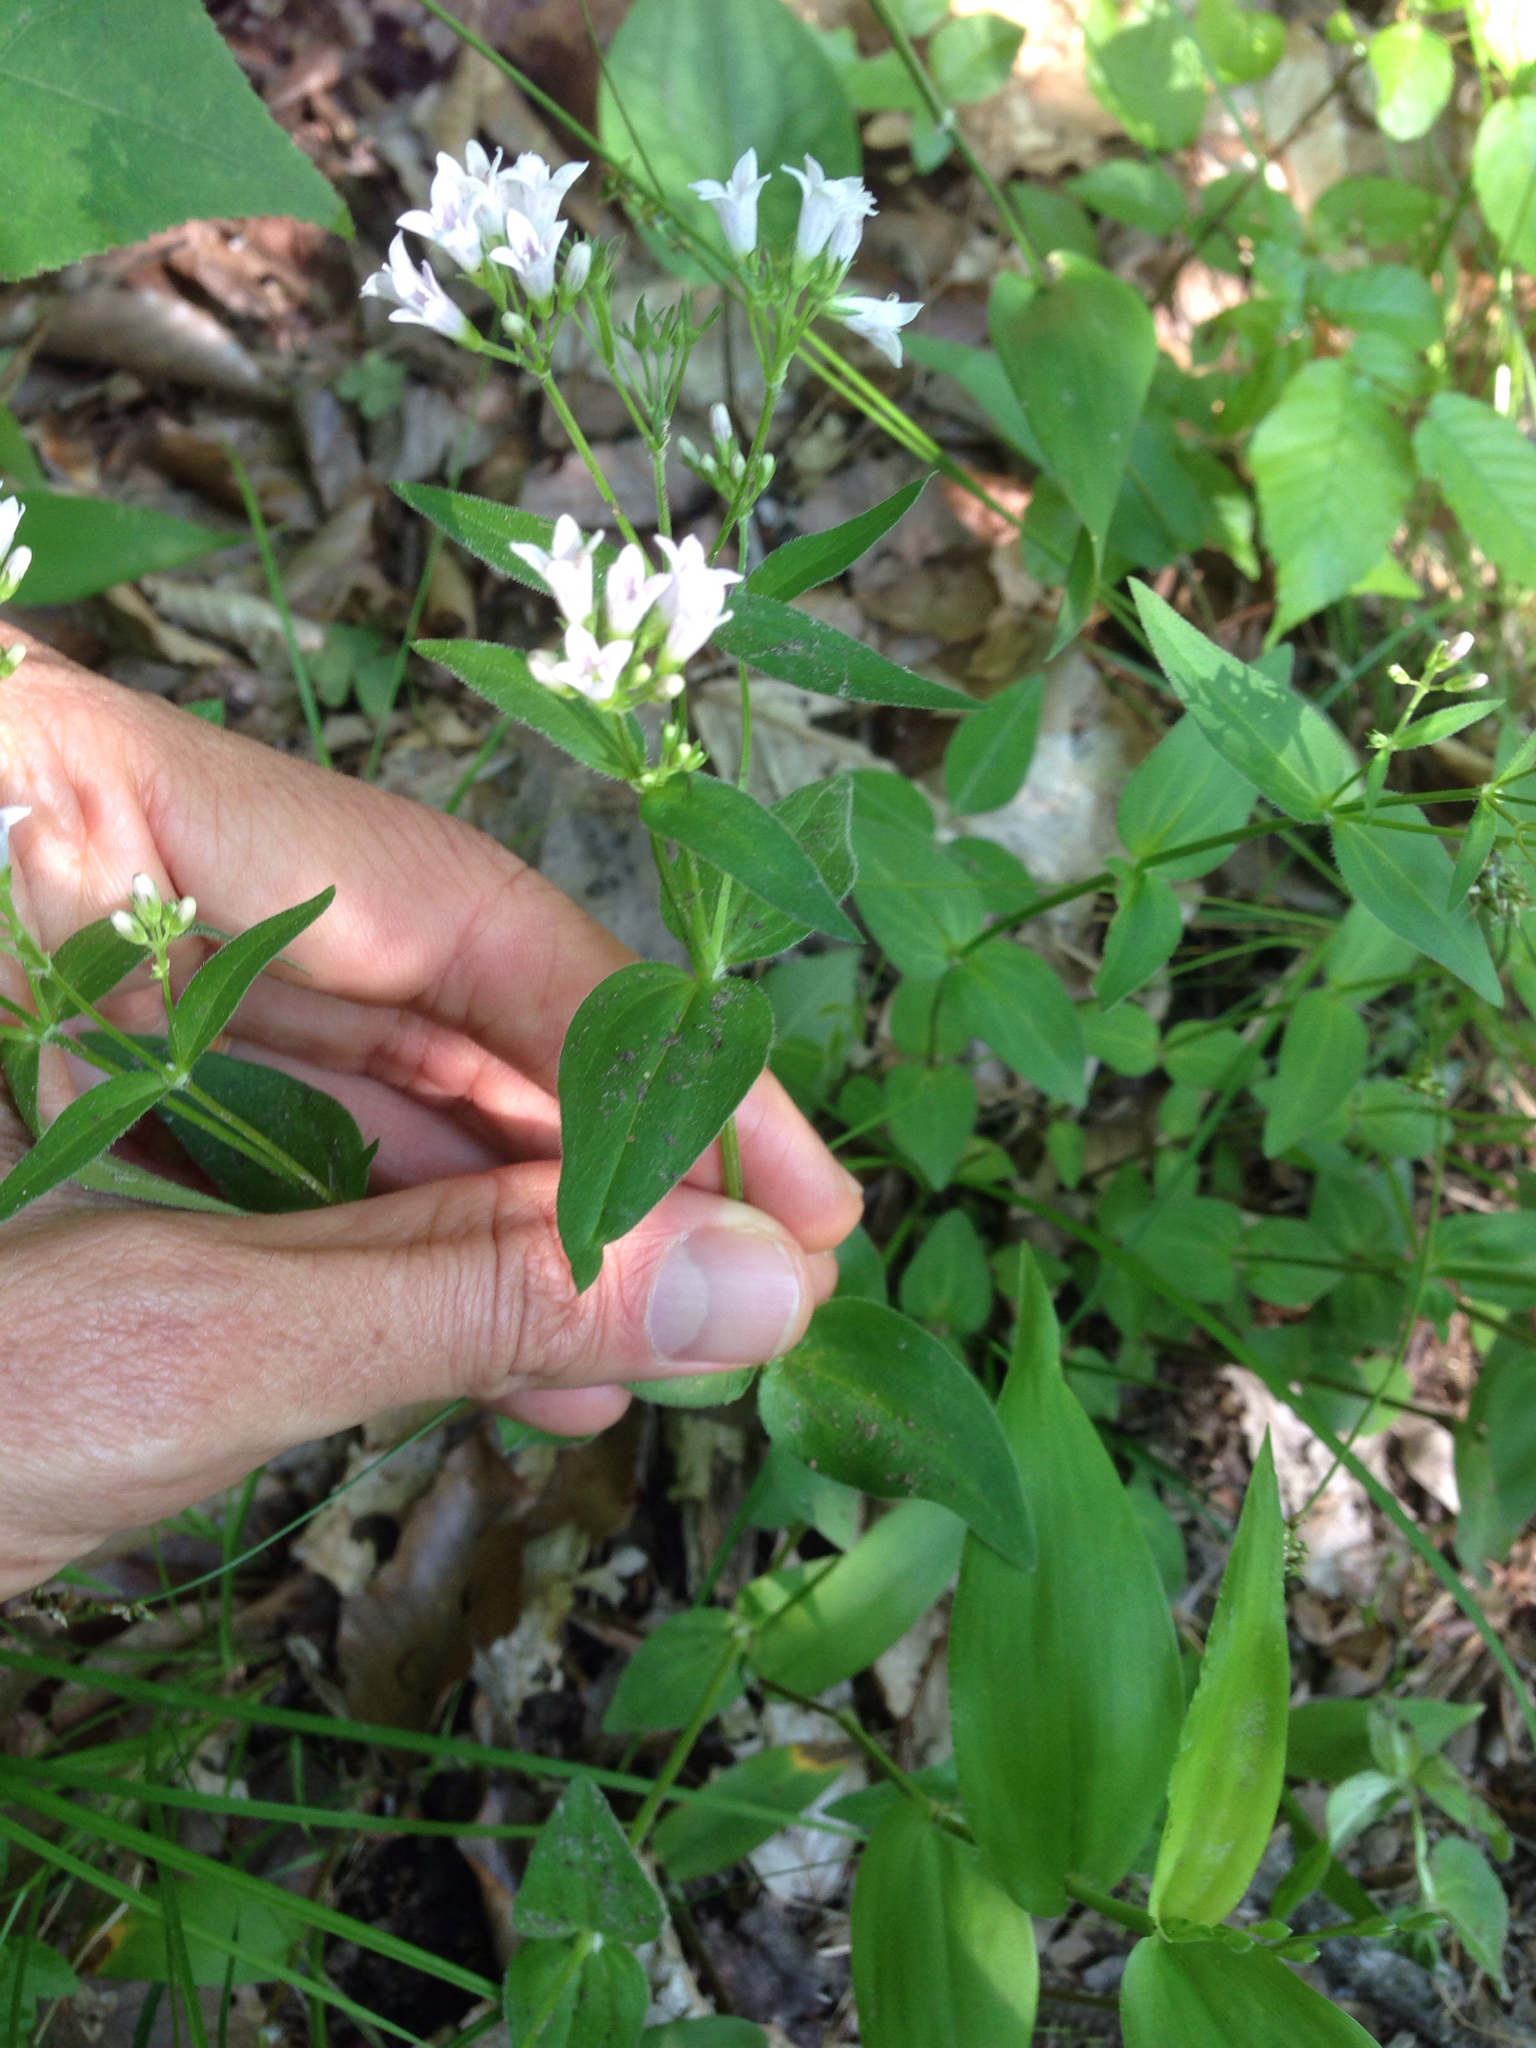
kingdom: Plantae
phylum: Tracheophyta
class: Magnoliopsida
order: Gentianales
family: Rubiaceae
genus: Houstonia
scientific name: Houstonia purpurea
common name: Summer bluet
